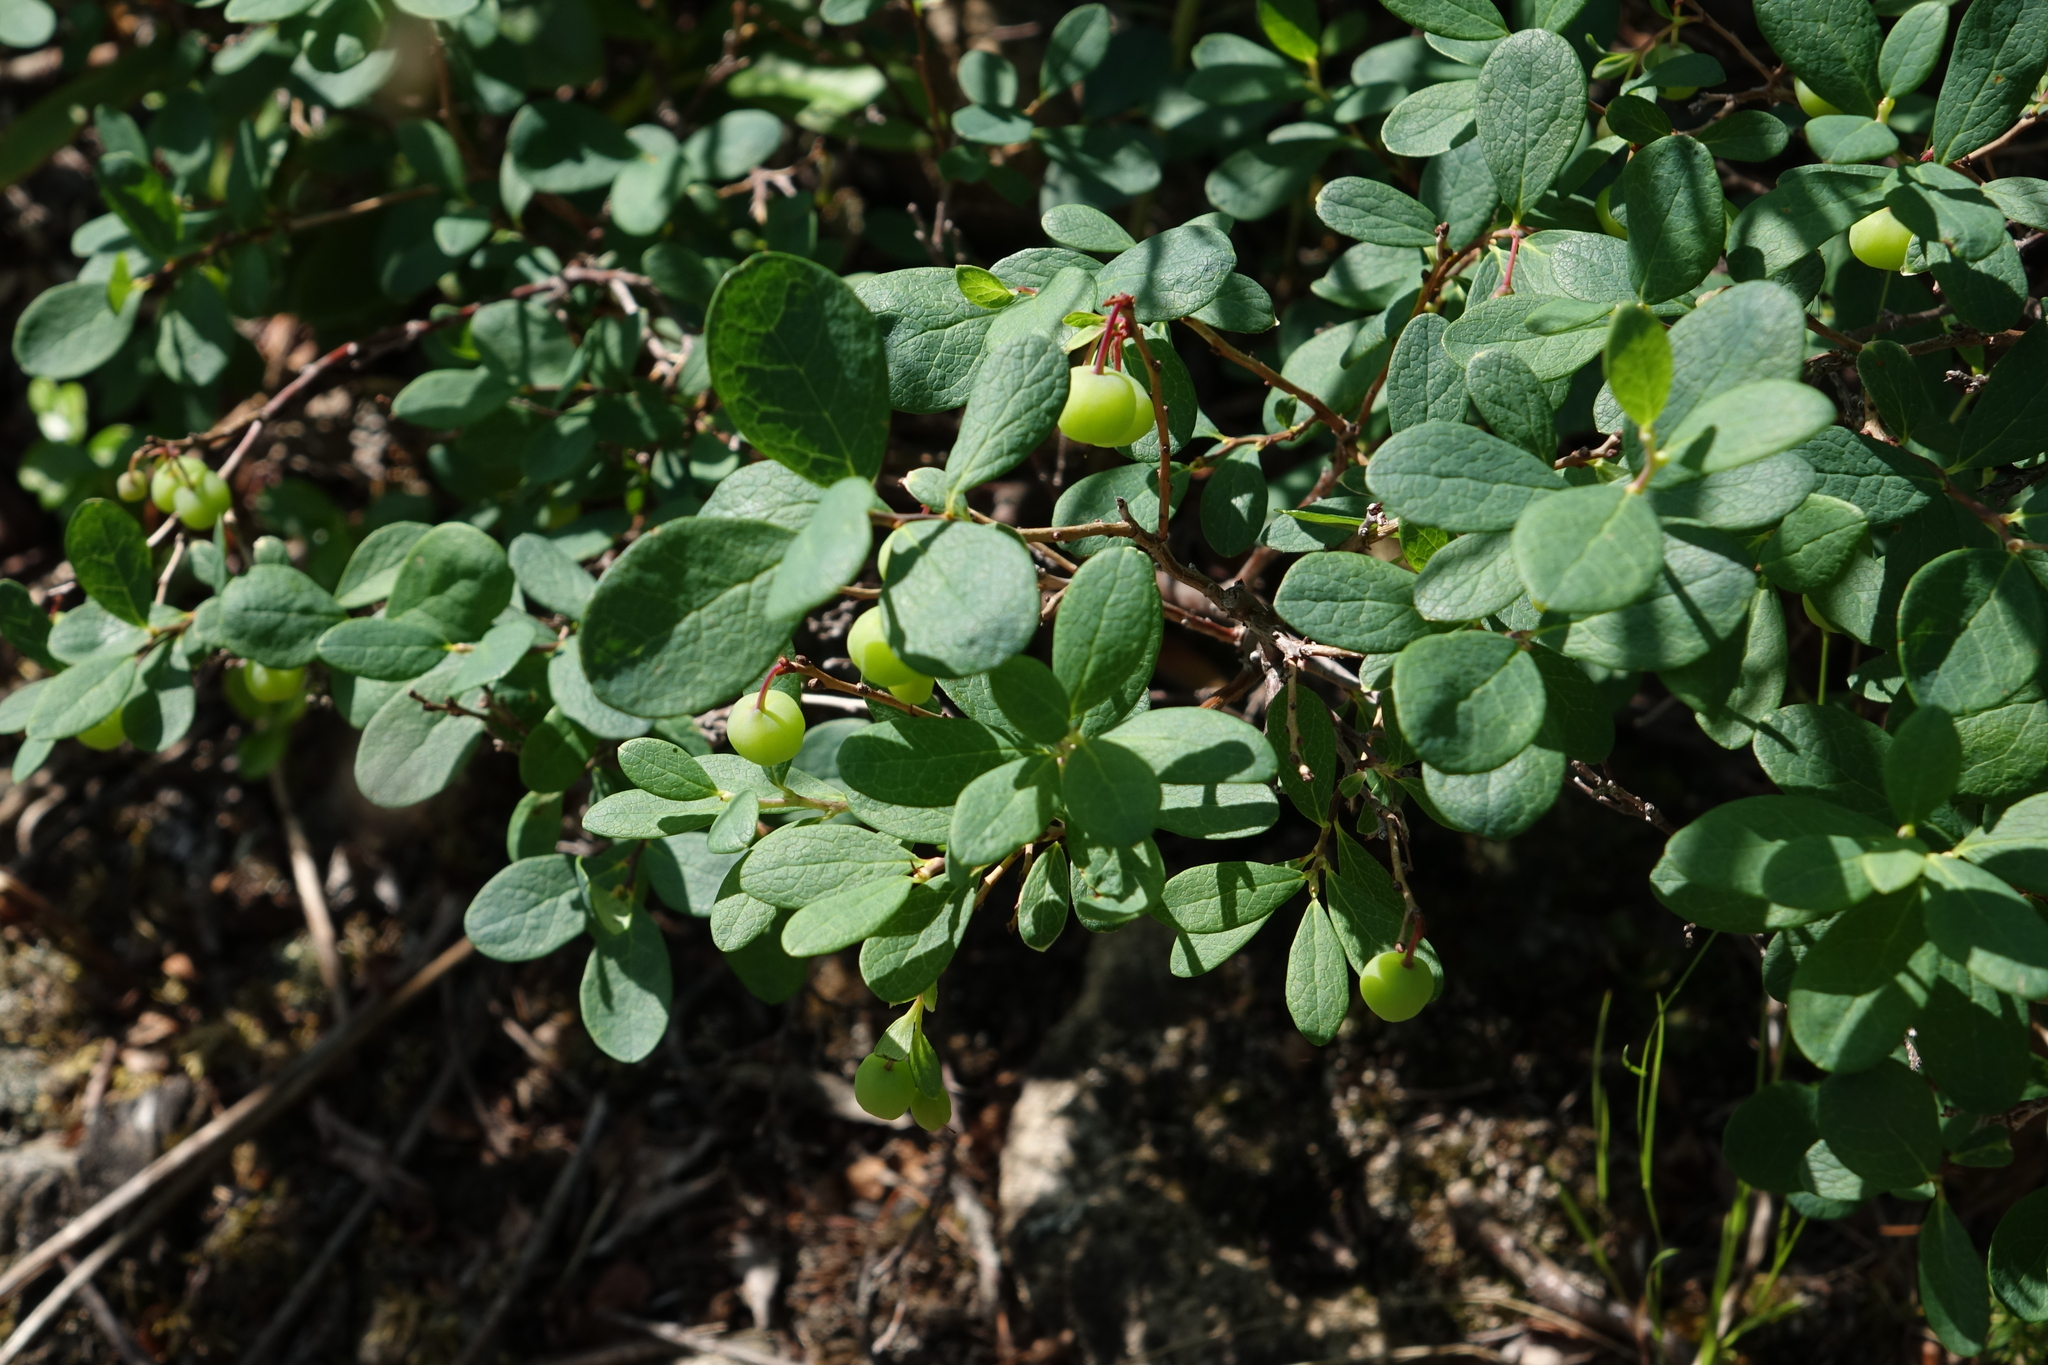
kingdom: Plantae
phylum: Tracheophyta
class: Magnoliopsida
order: Ericales
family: Ericaceae
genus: Vaccinium
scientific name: Vaccinium uliginosum
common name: Bog bilberry
